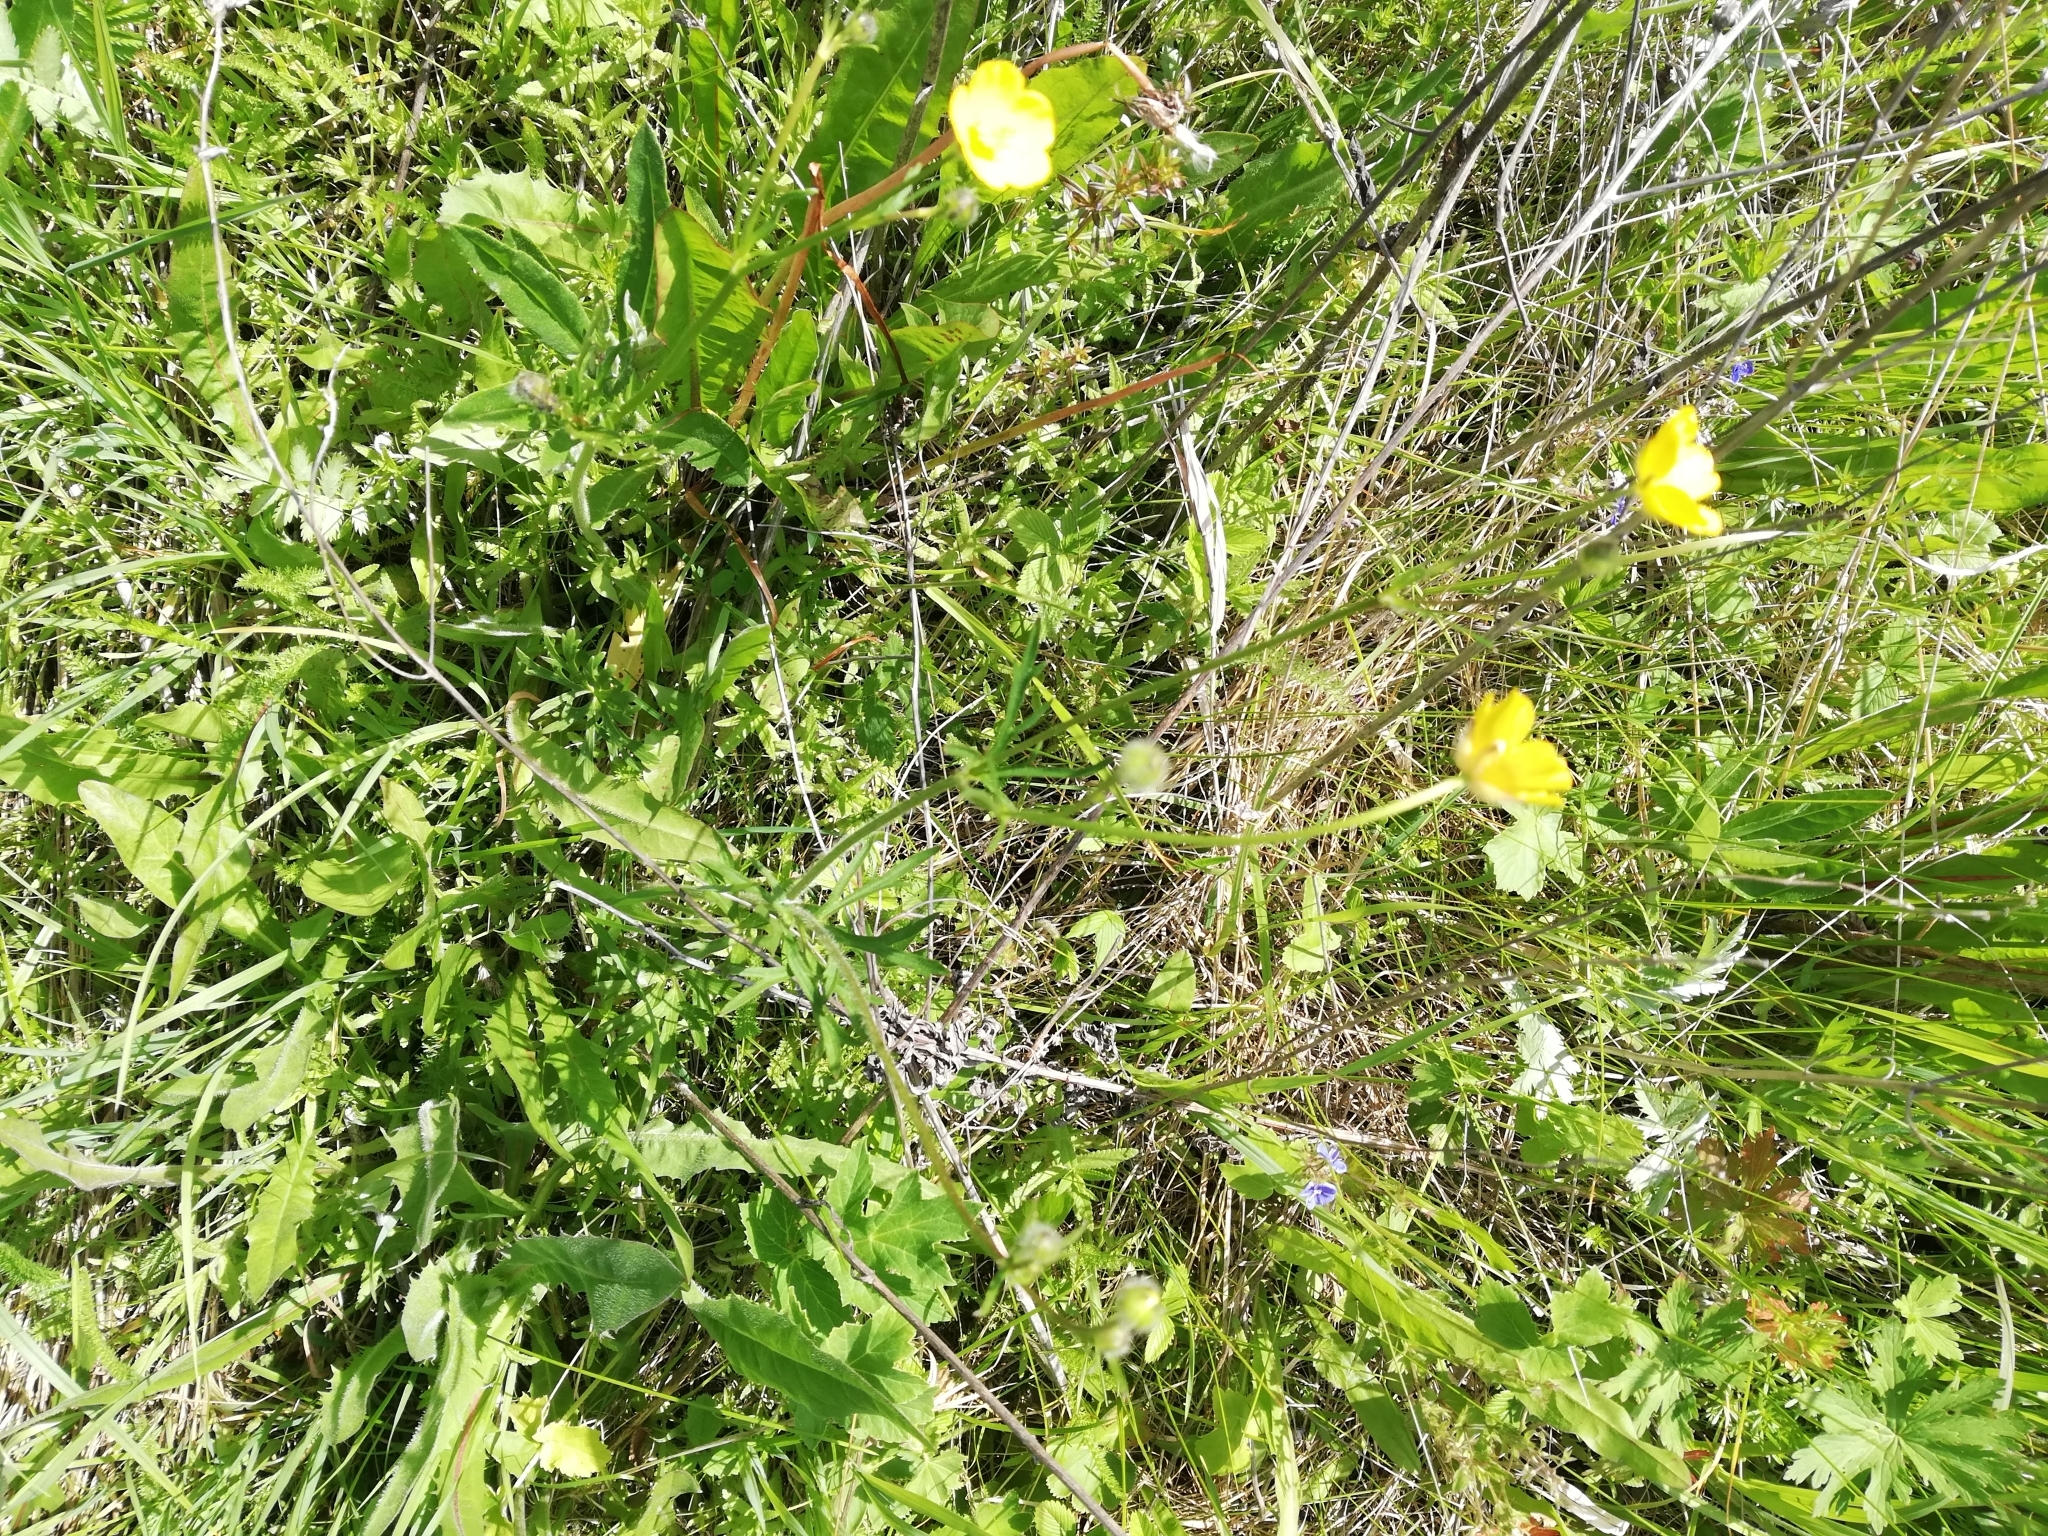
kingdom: Plantae
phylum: Tracheophyta
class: Magnoliopsida
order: Ranunculales
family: Ranunculaceae
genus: Ranunculus
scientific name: Ranunculus polyanthemos
